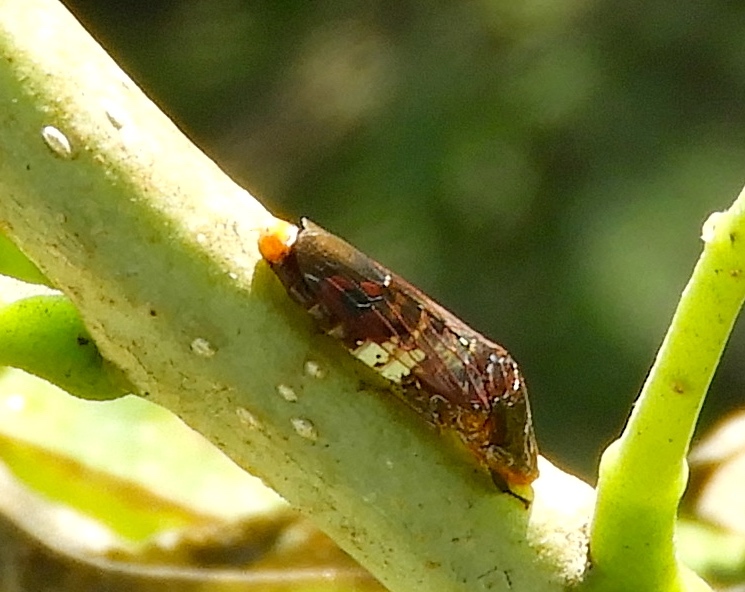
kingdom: Animalia
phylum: Arthropoda
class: Insecta
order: Hemiptera
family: Cicadellidae
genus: Homalodisca
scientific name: Homalodisca ichthyocephala
